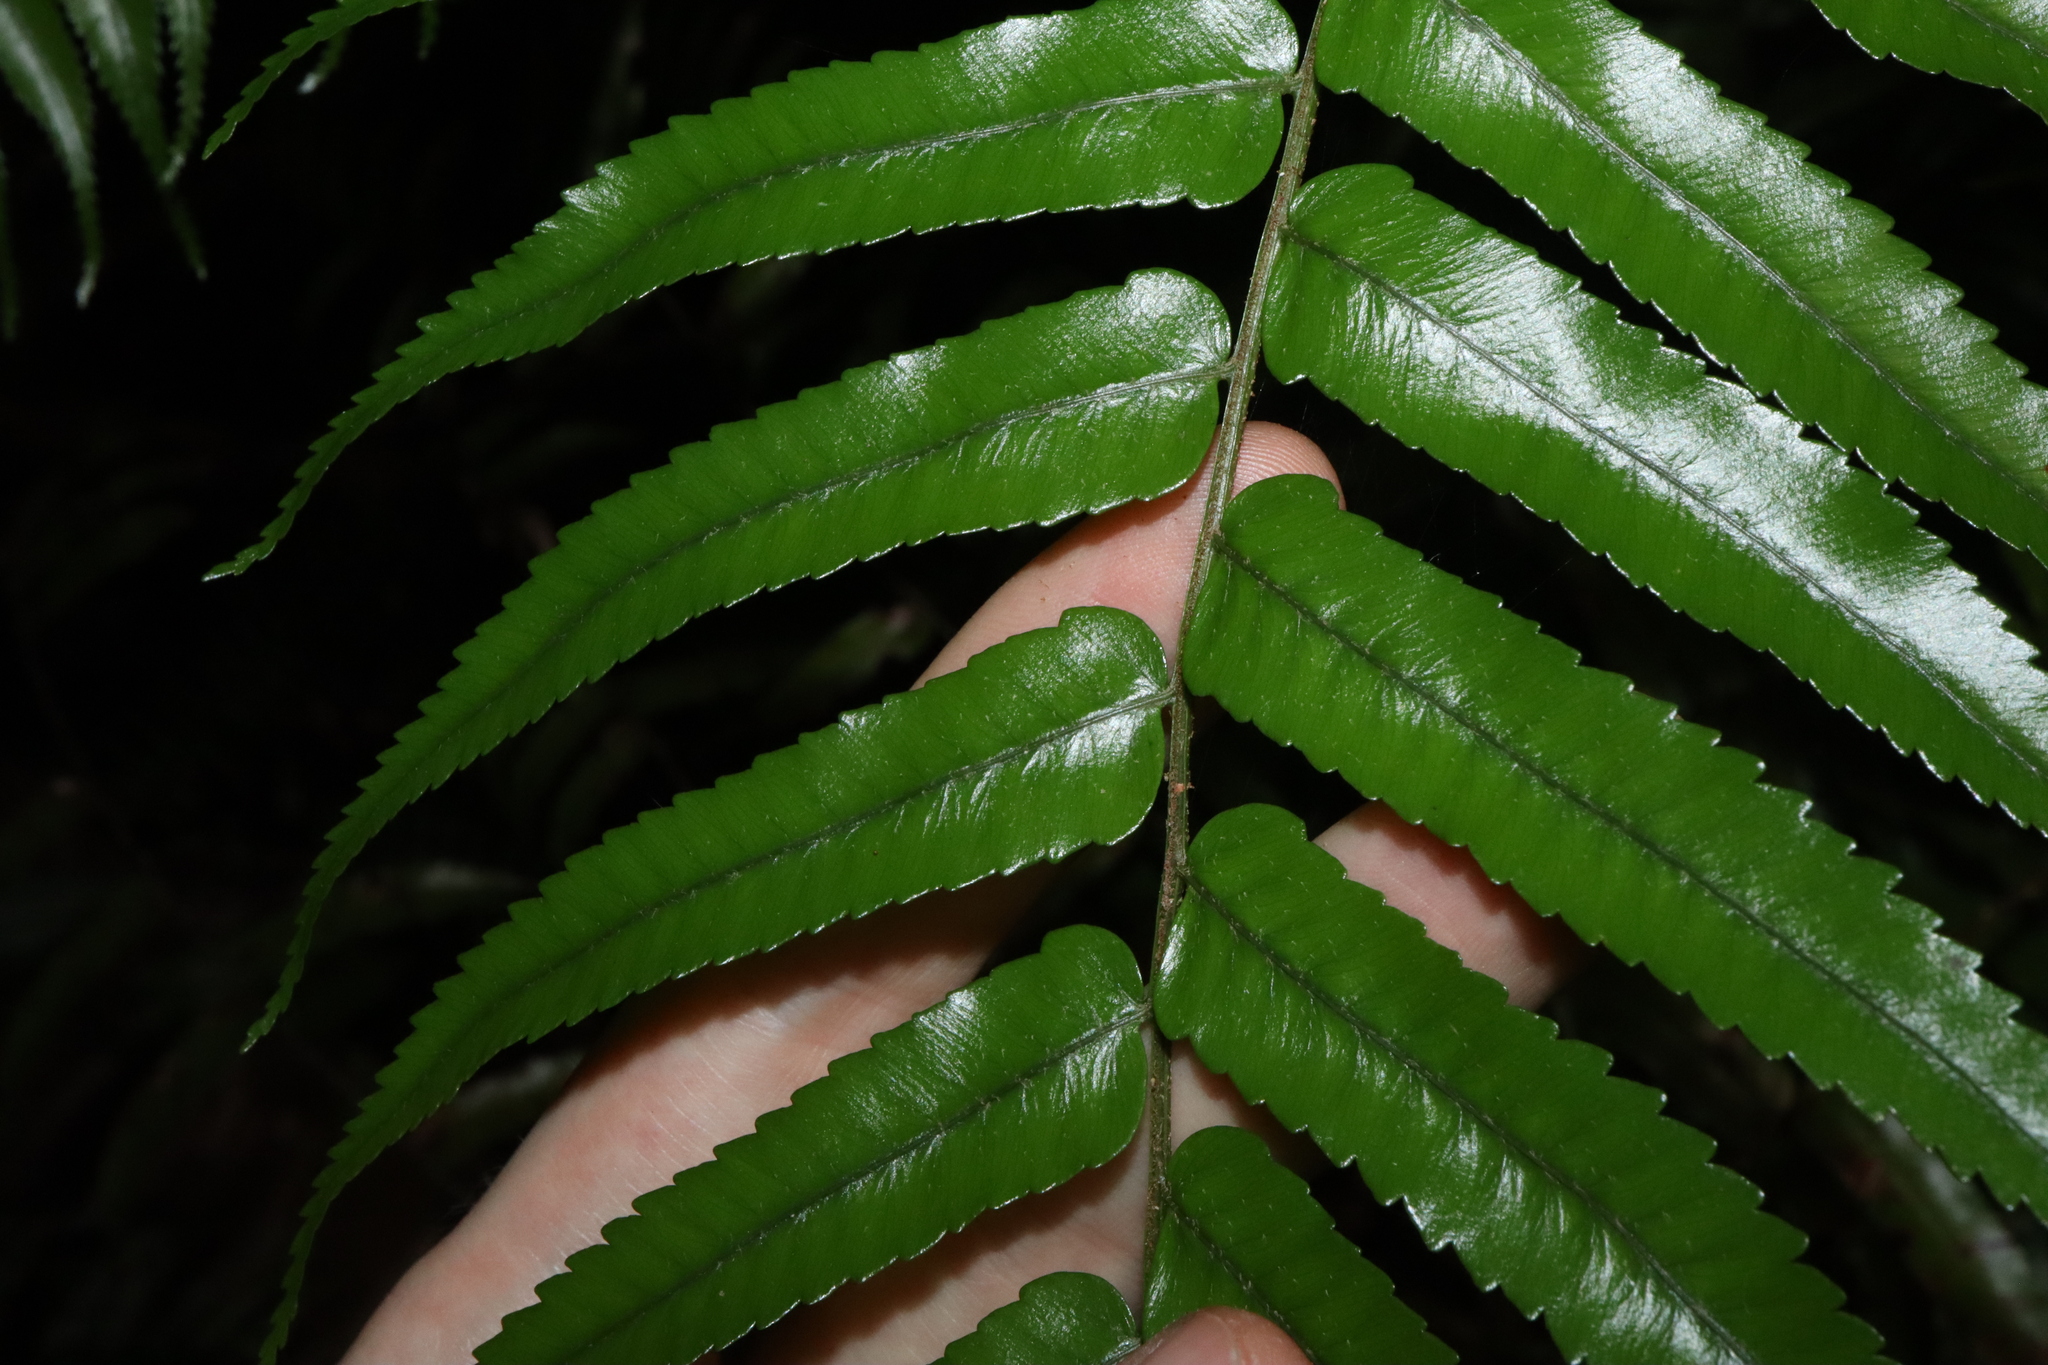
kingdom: Plantae
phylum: Tracheophyta
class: Polypodiopsida
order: Cyatheales
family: Cyatheaceae
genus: Gymnosphaera
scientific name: Gymnosphaera rebeccae
